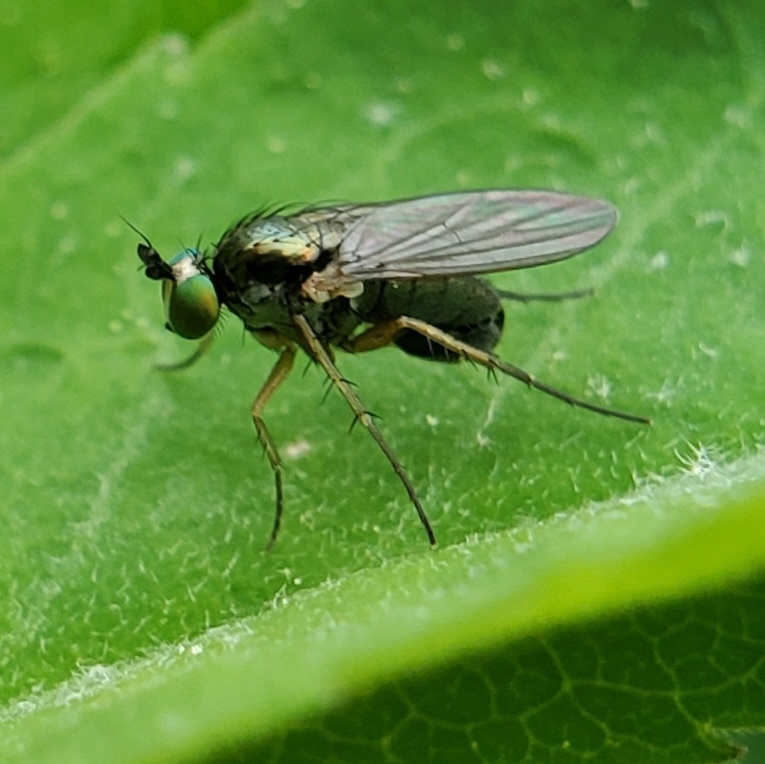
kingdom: Animalia
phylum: Arthropoda
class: Insecta
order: Diptera
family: Dolichopodidae
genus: Gymnopternus
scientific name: Gymnopternus
